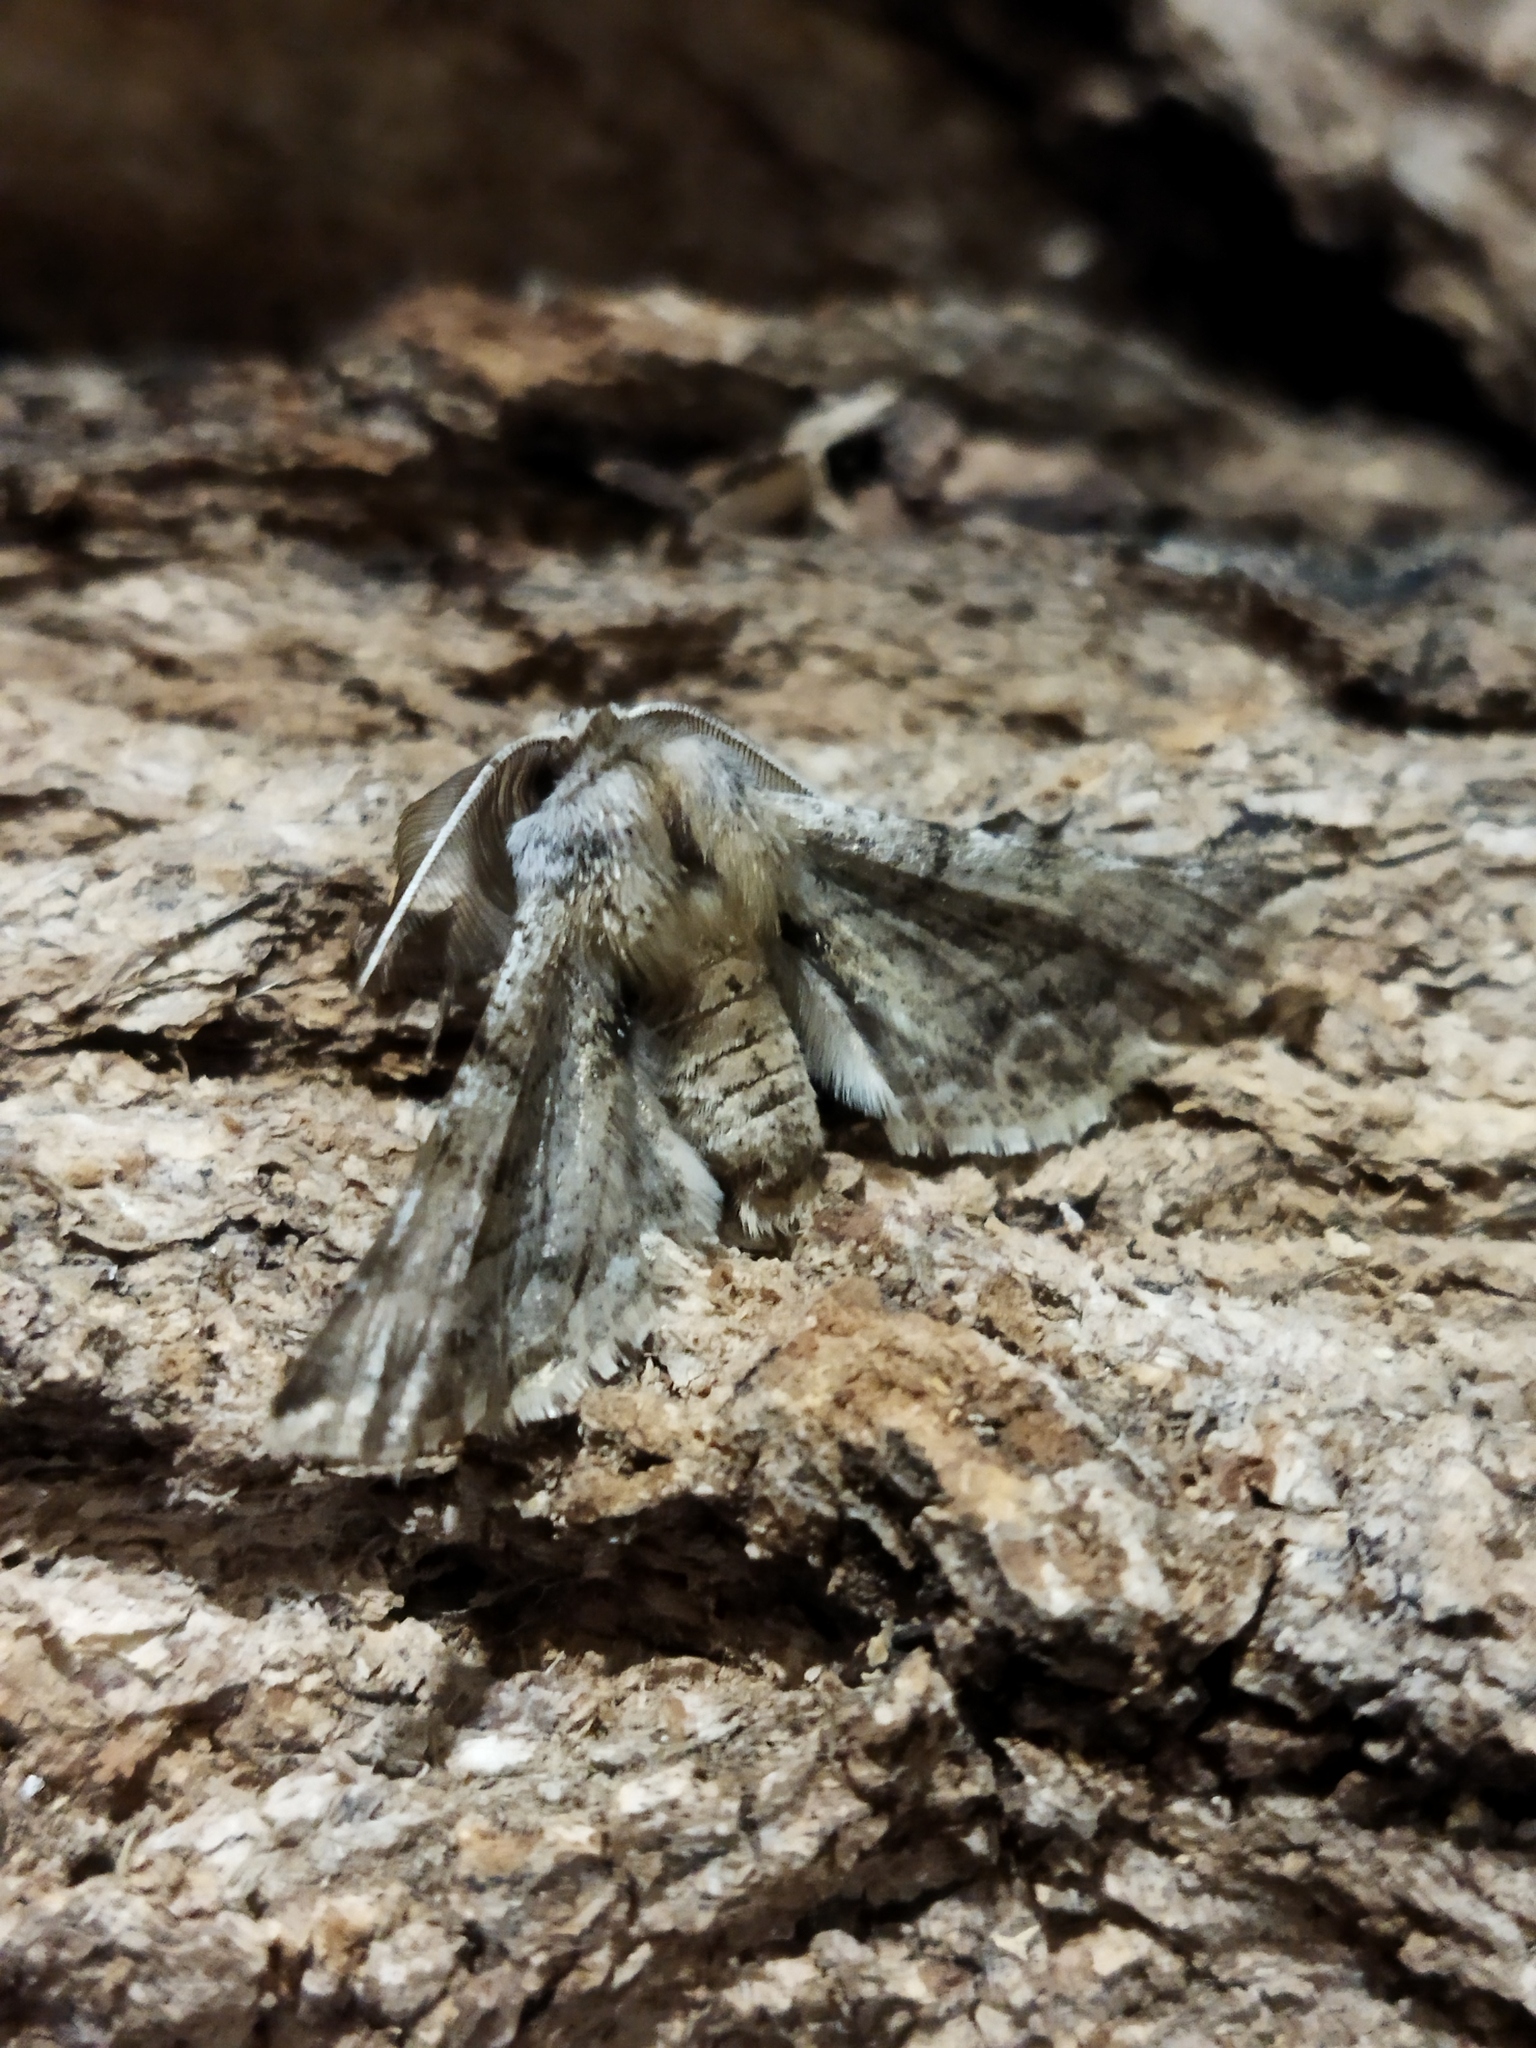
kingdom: Animalia
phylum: Arthropoda
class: Insecta
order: Lepidoptera
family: Geometridae
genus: Apochima
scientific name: Apochima flabellaria
